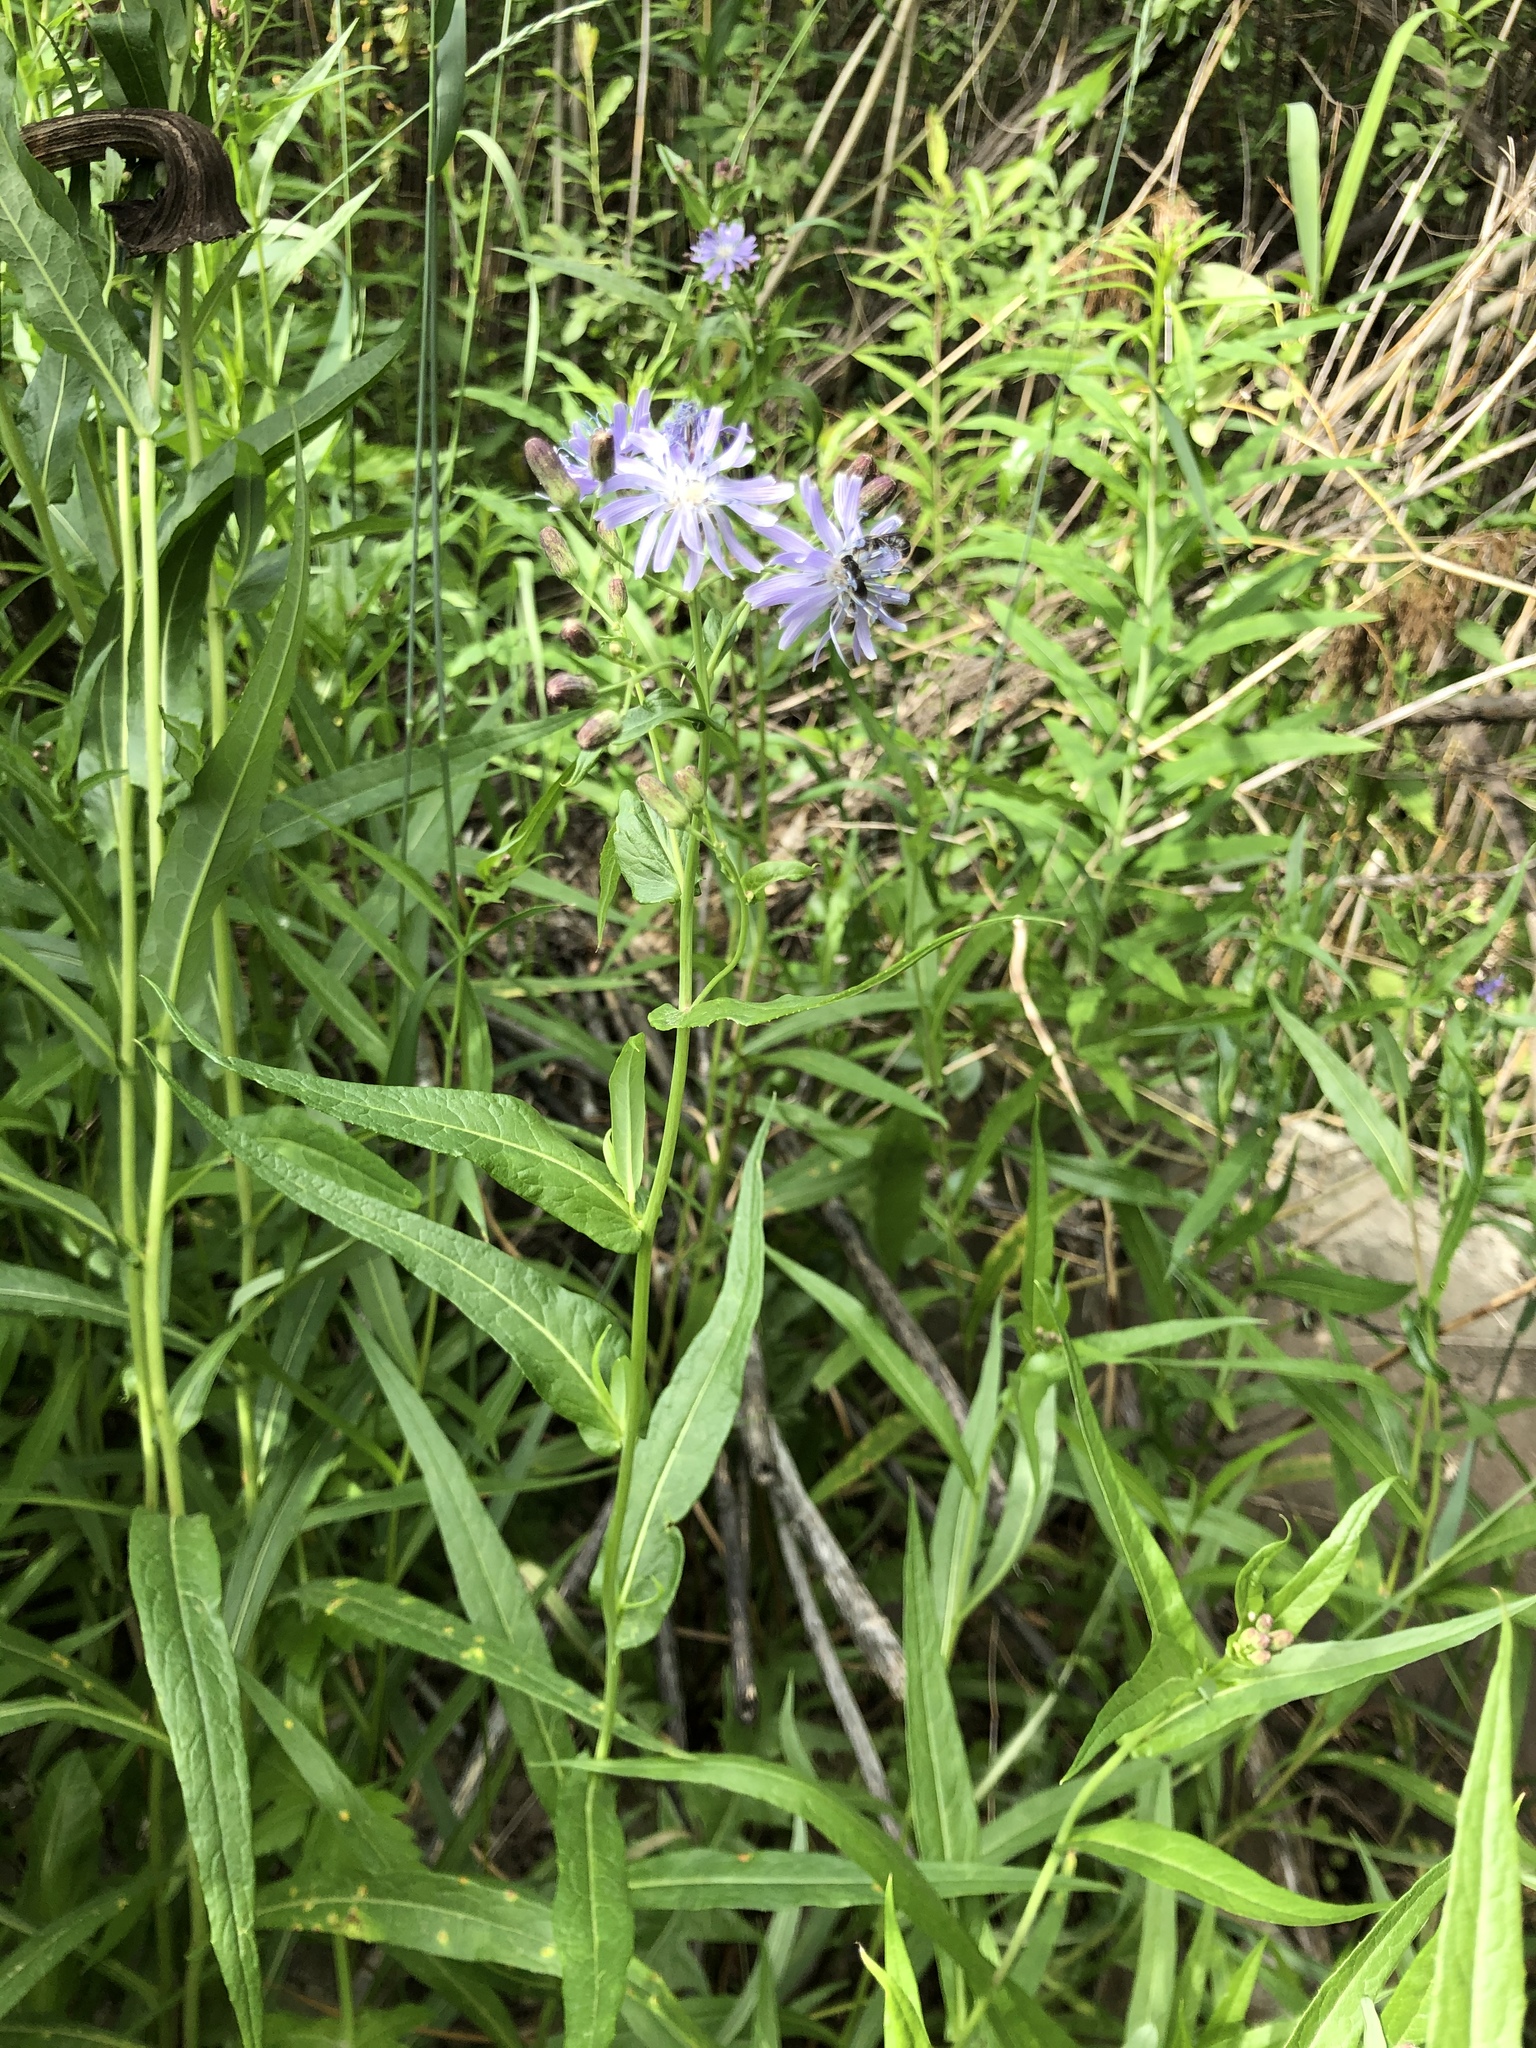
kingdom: Plantae
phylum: Tracheophyta
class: Magnoliopsida
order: Asterales
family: Asteraceae
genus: Lactuca
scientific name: Lactuca sibirica
